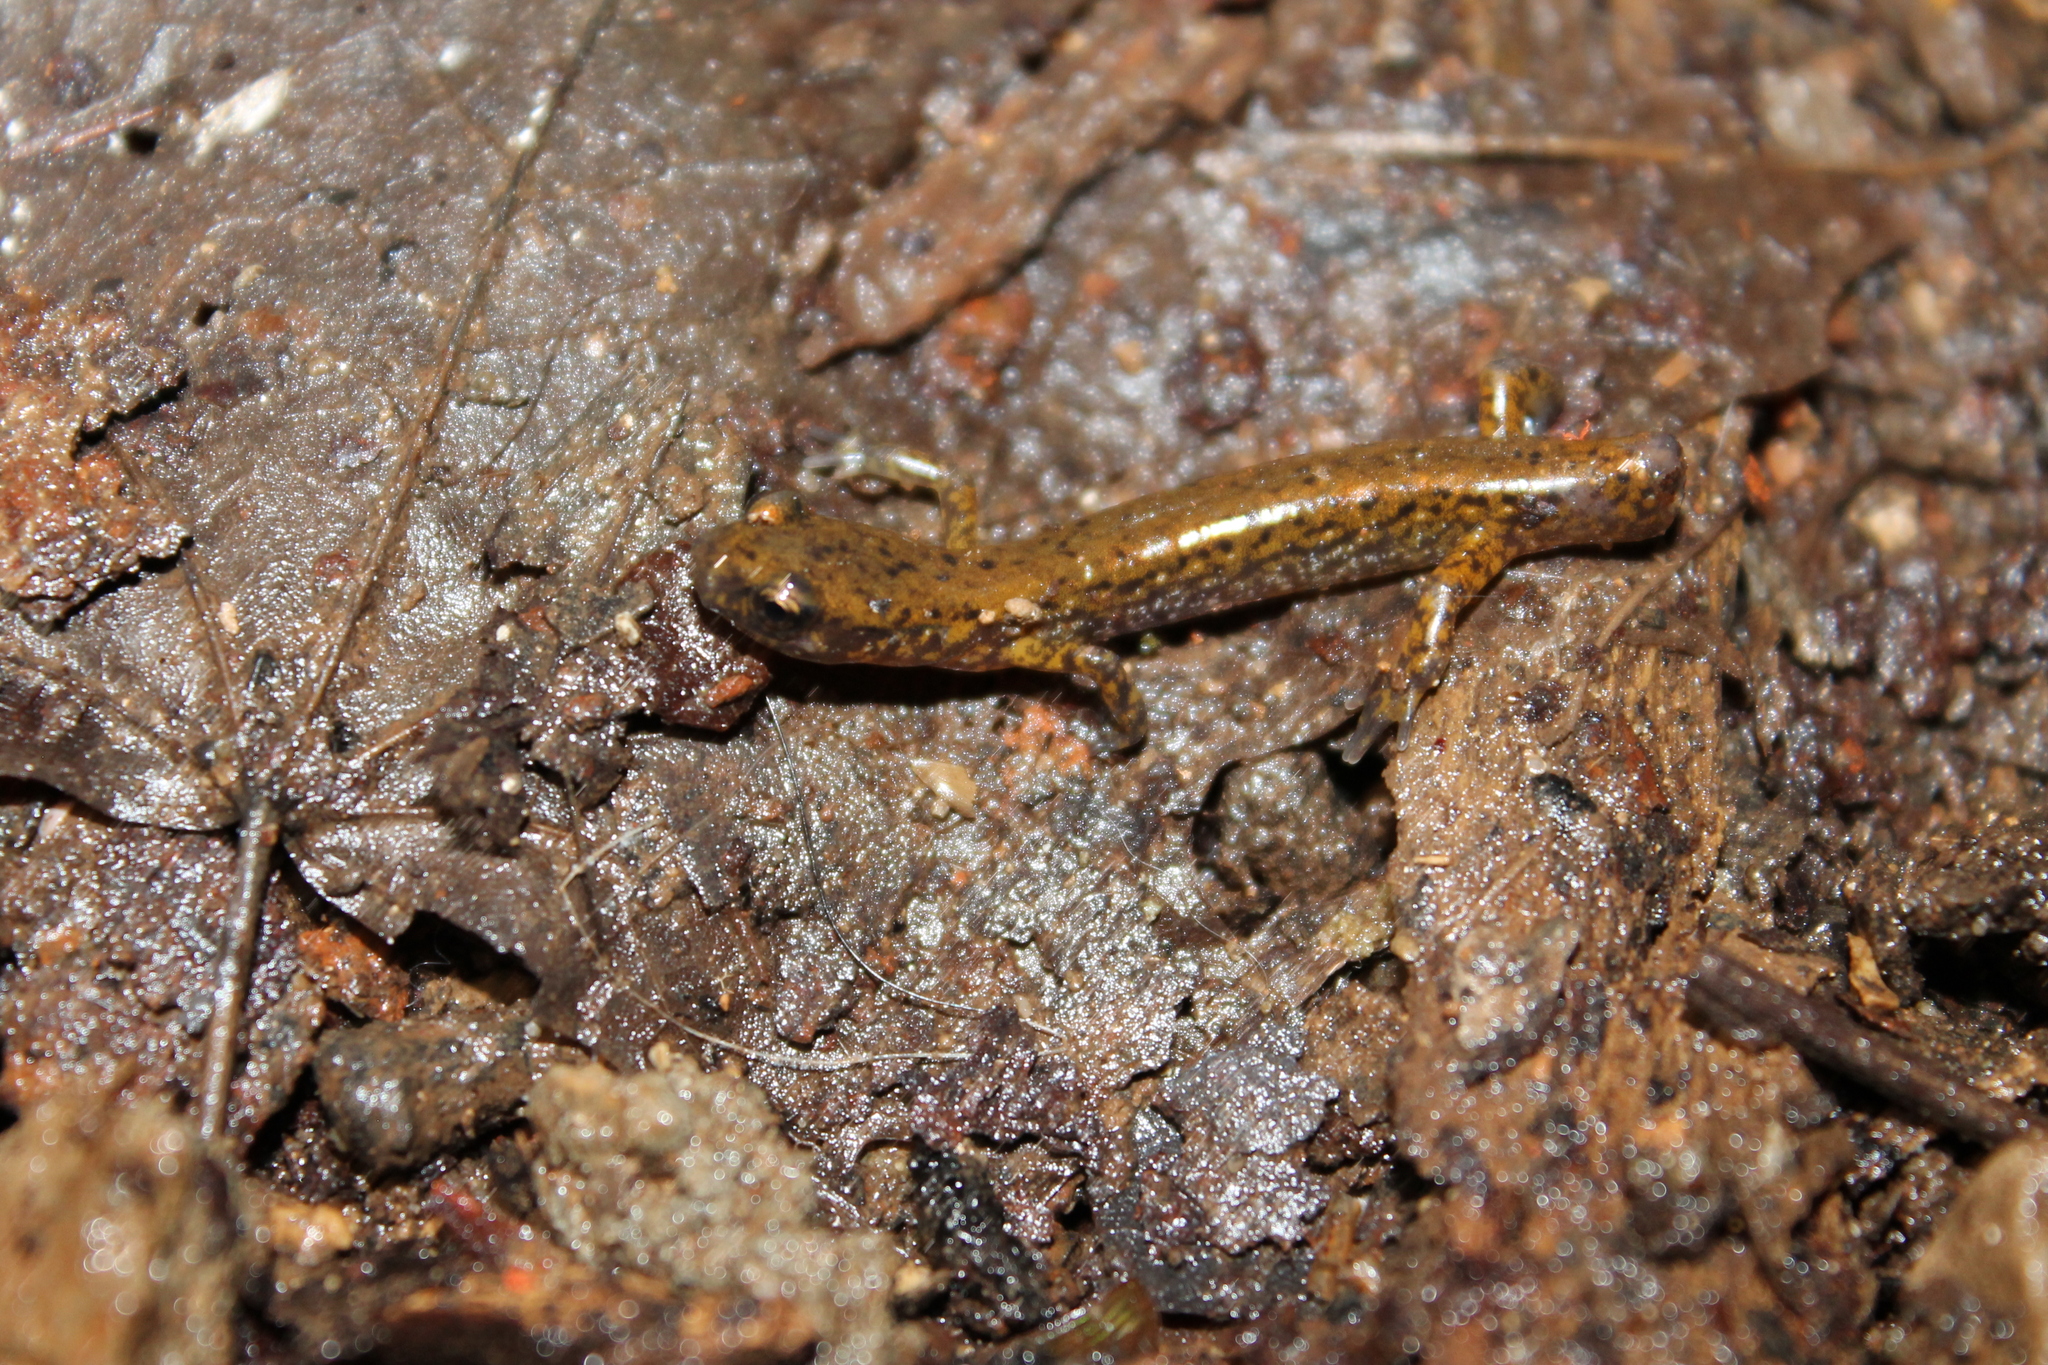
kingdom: Animalia
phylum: Chordata
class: Amphibia
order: Caudata
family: Plethodontidae
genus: Eurycea
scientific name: Eurycea lucifuga
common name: Cave salamander
